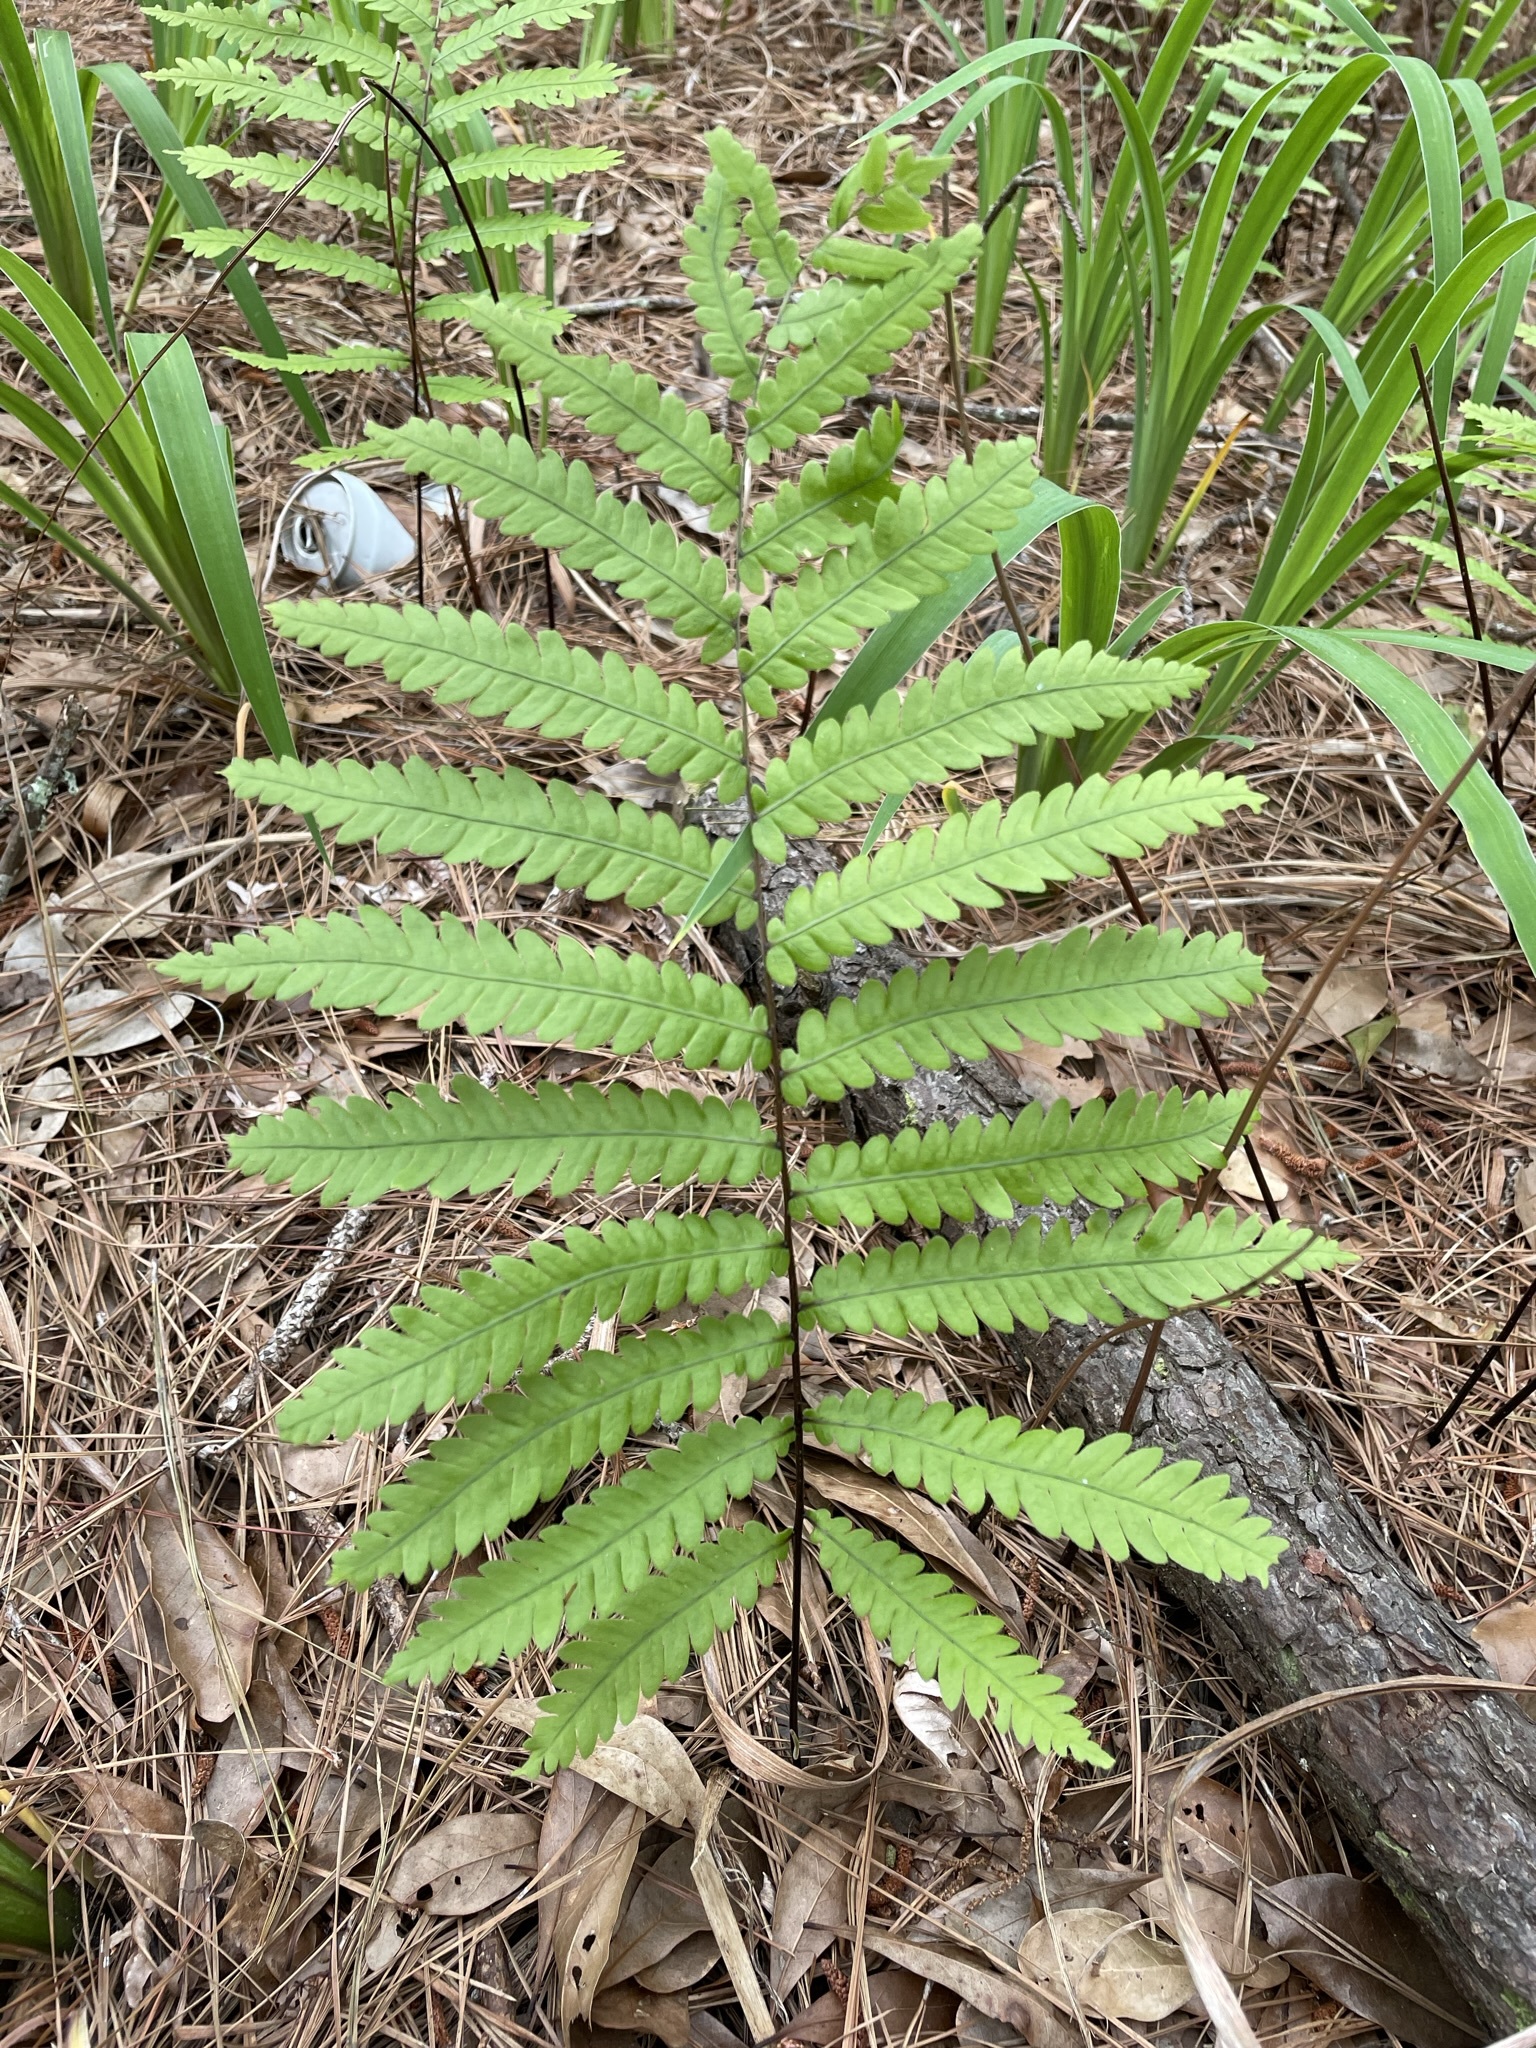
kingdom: Plantae
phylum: Tracheophyta
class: Polypodiopsida
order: Polypodiales
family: Blechnaceae
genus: Anchistea
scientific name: Anchistea virginica
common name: Virginia chain fern
